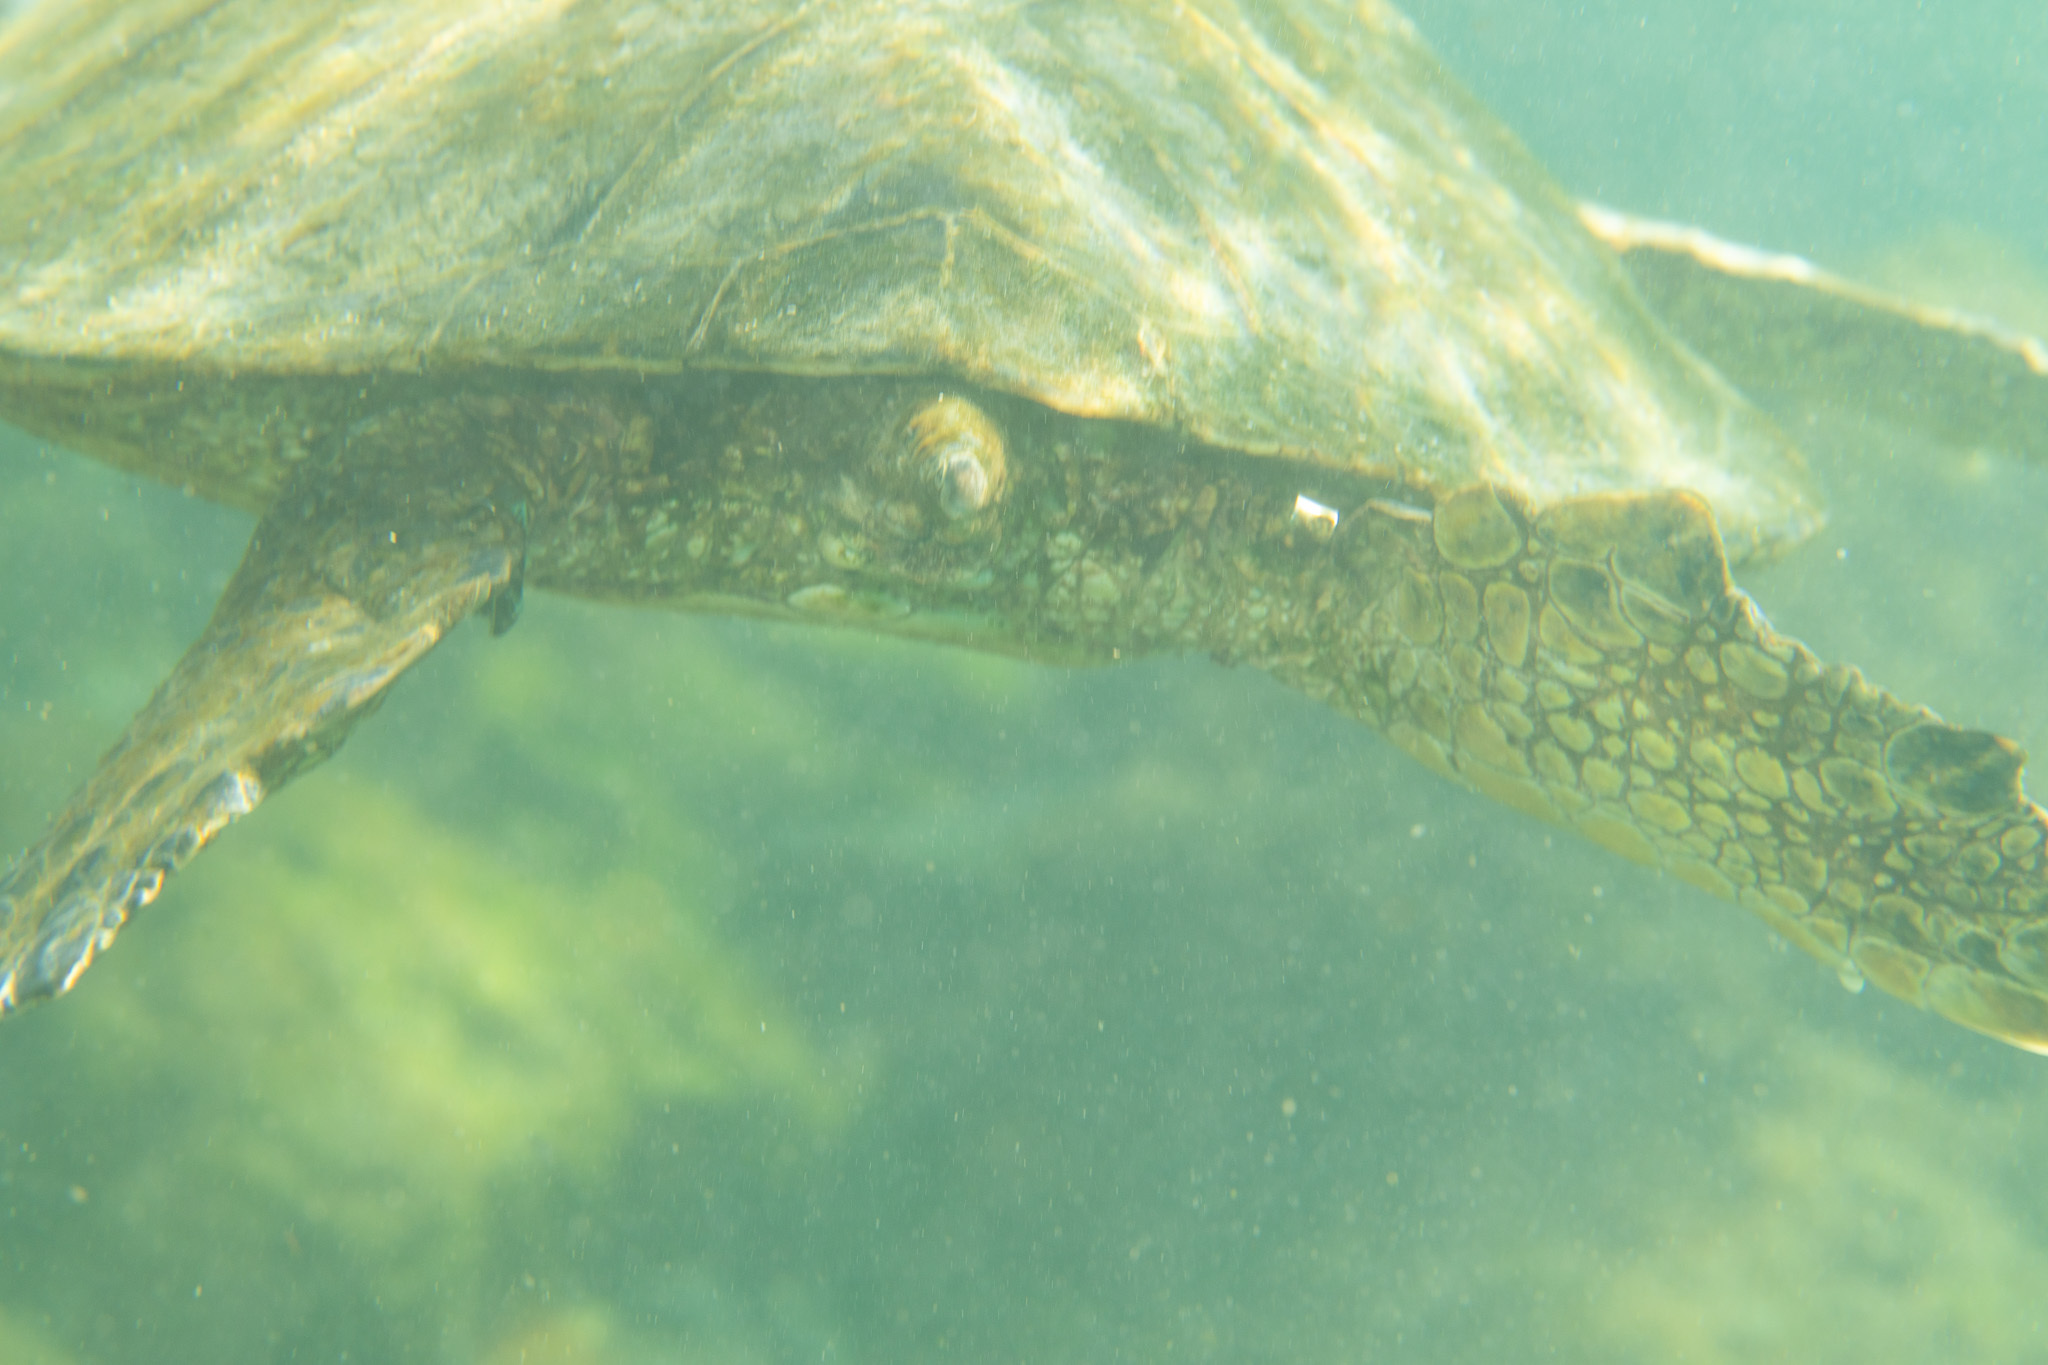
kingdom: Animalia
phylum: Chordata
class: Testudines
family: Cheloniidae
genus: Chelonia
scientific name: Chelonia mydas
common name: Green turtle
